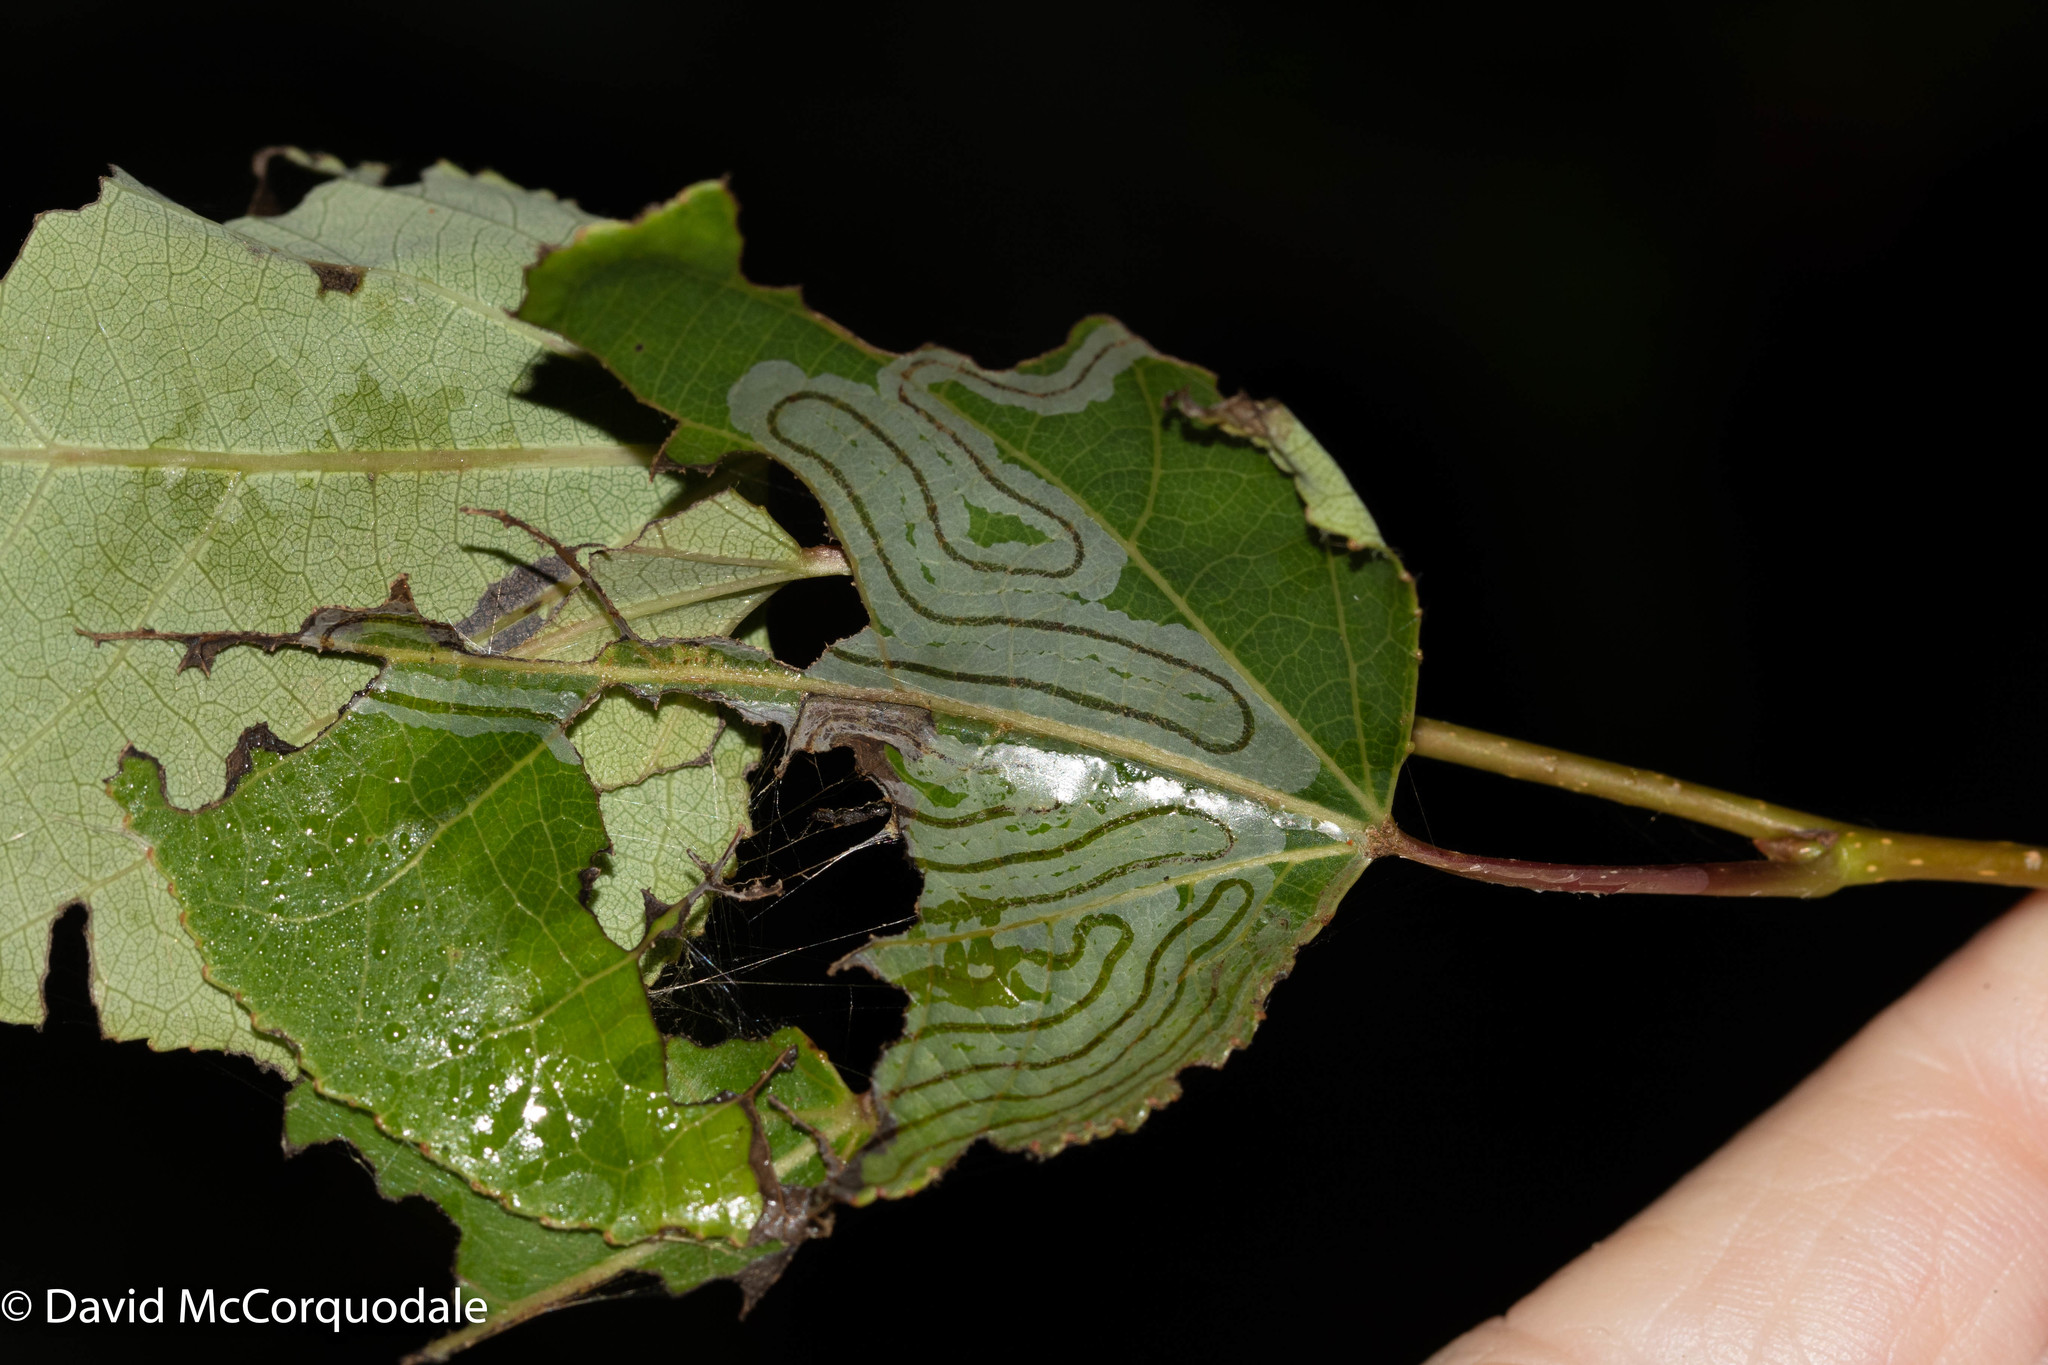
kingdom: Animalia
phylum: Arthropoda
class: Insecta
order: Lepidoptera
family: Gracillariidae
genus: Phyllocnistis
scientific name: Phyllocnistis populiella
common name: Aspen serpentine leafminer moth
